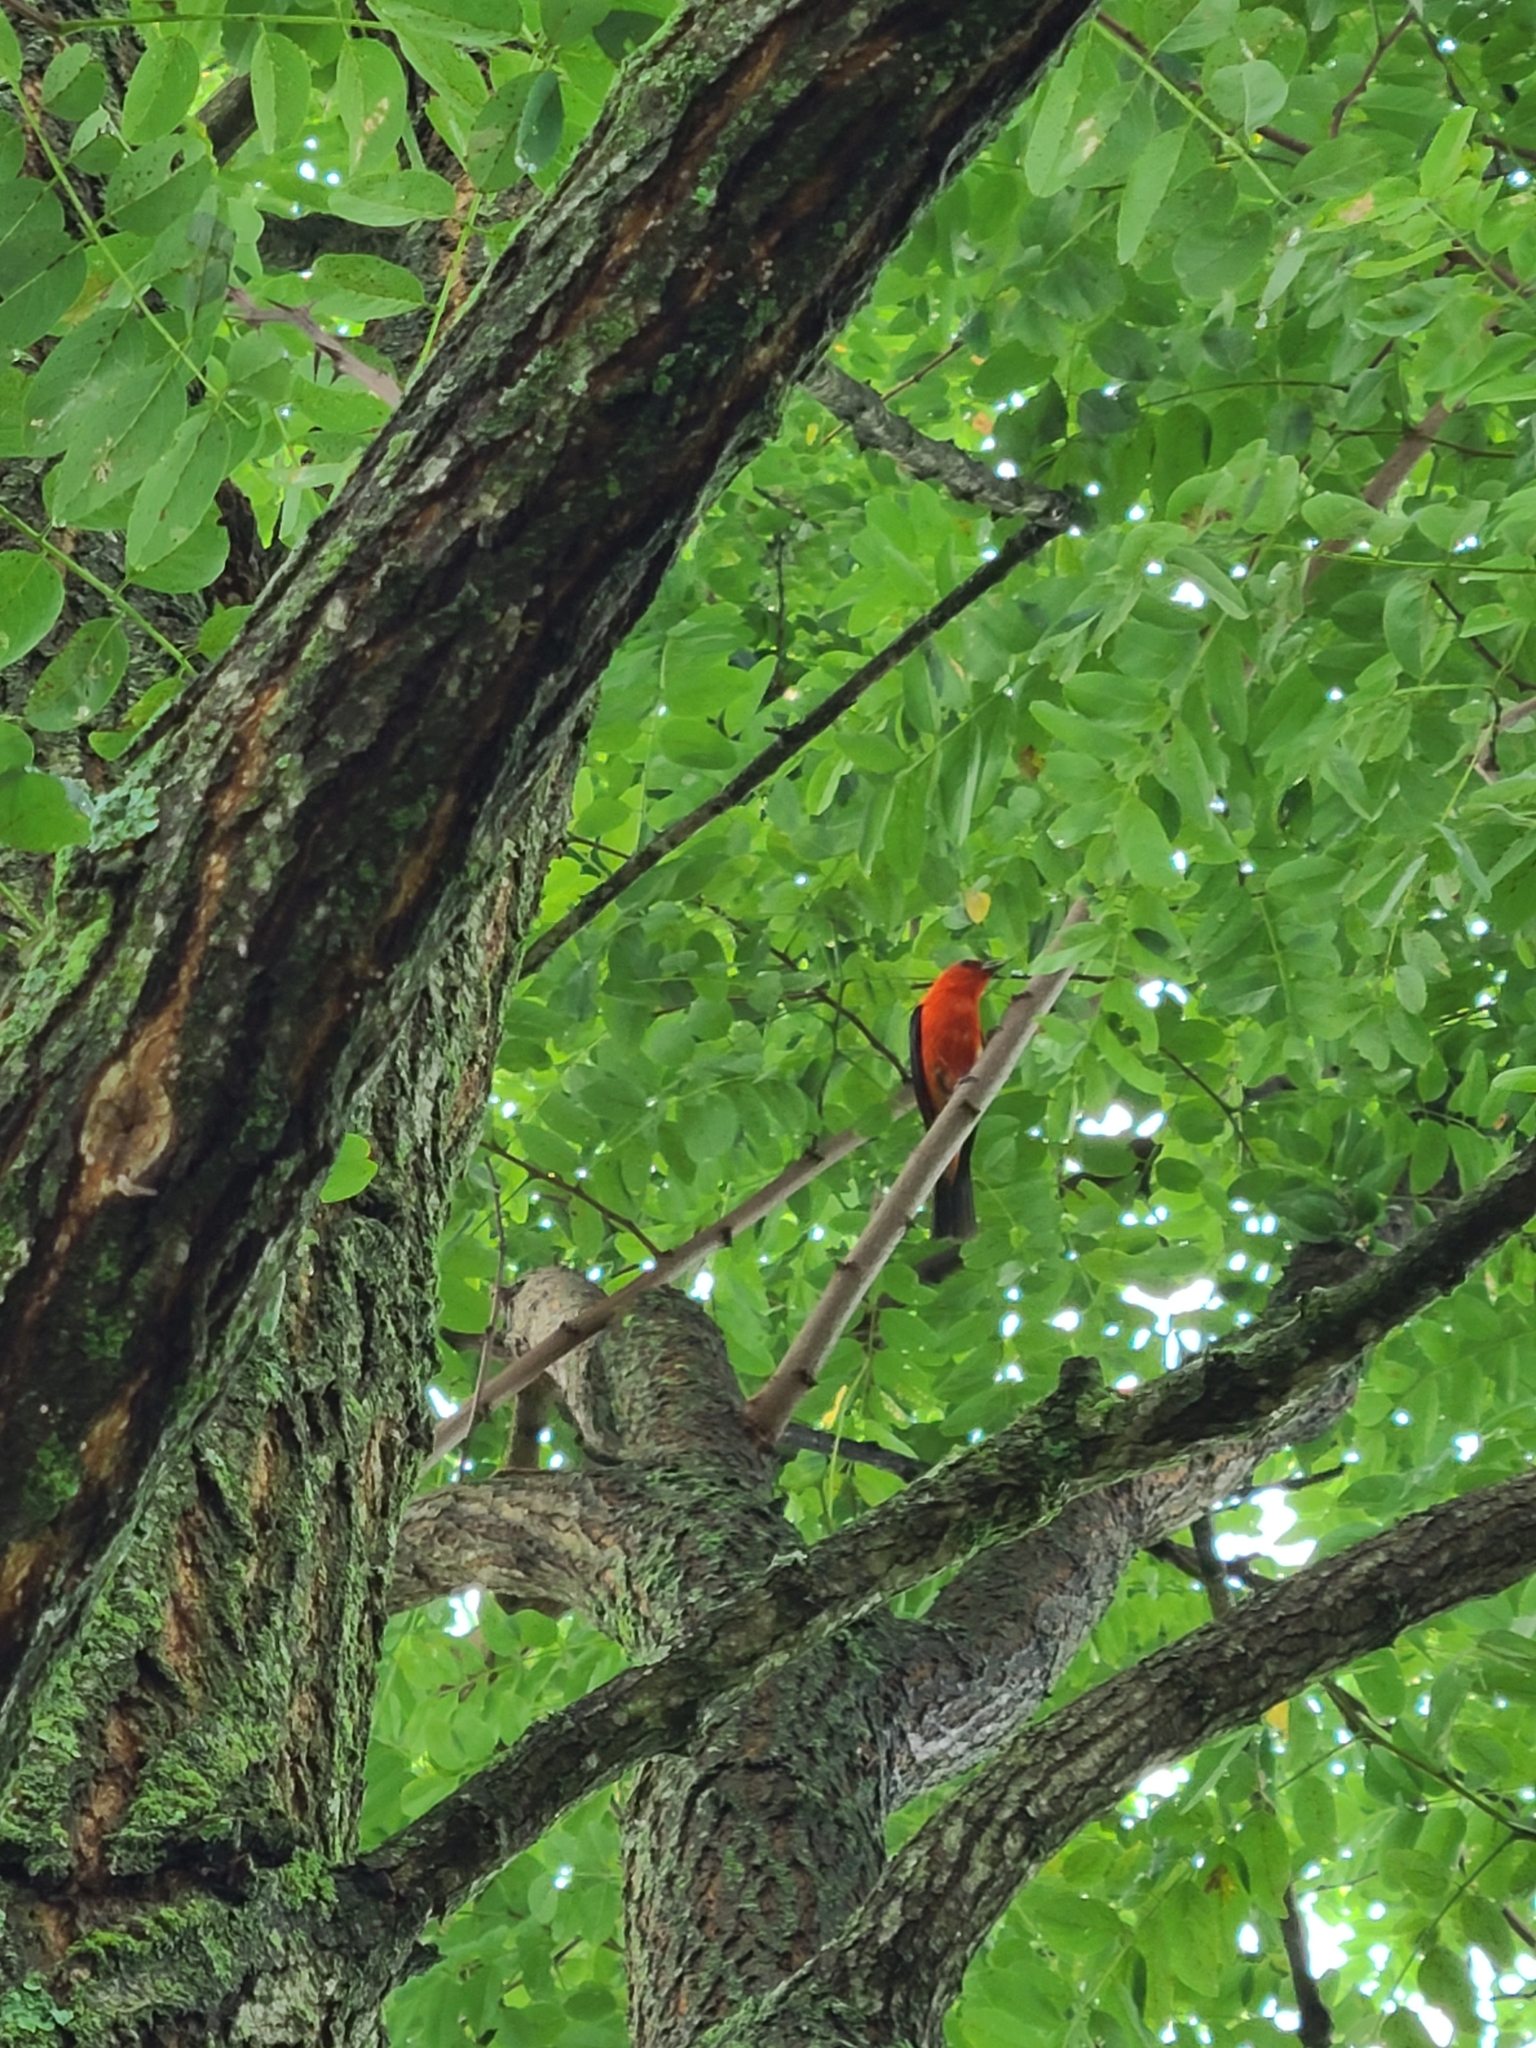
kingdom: Animalia
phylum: Chordata
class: Aves
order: Passeriformes
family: Cardinalidae
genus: Piranga
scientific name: Piranga olivacea
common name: Scarlet tanager
